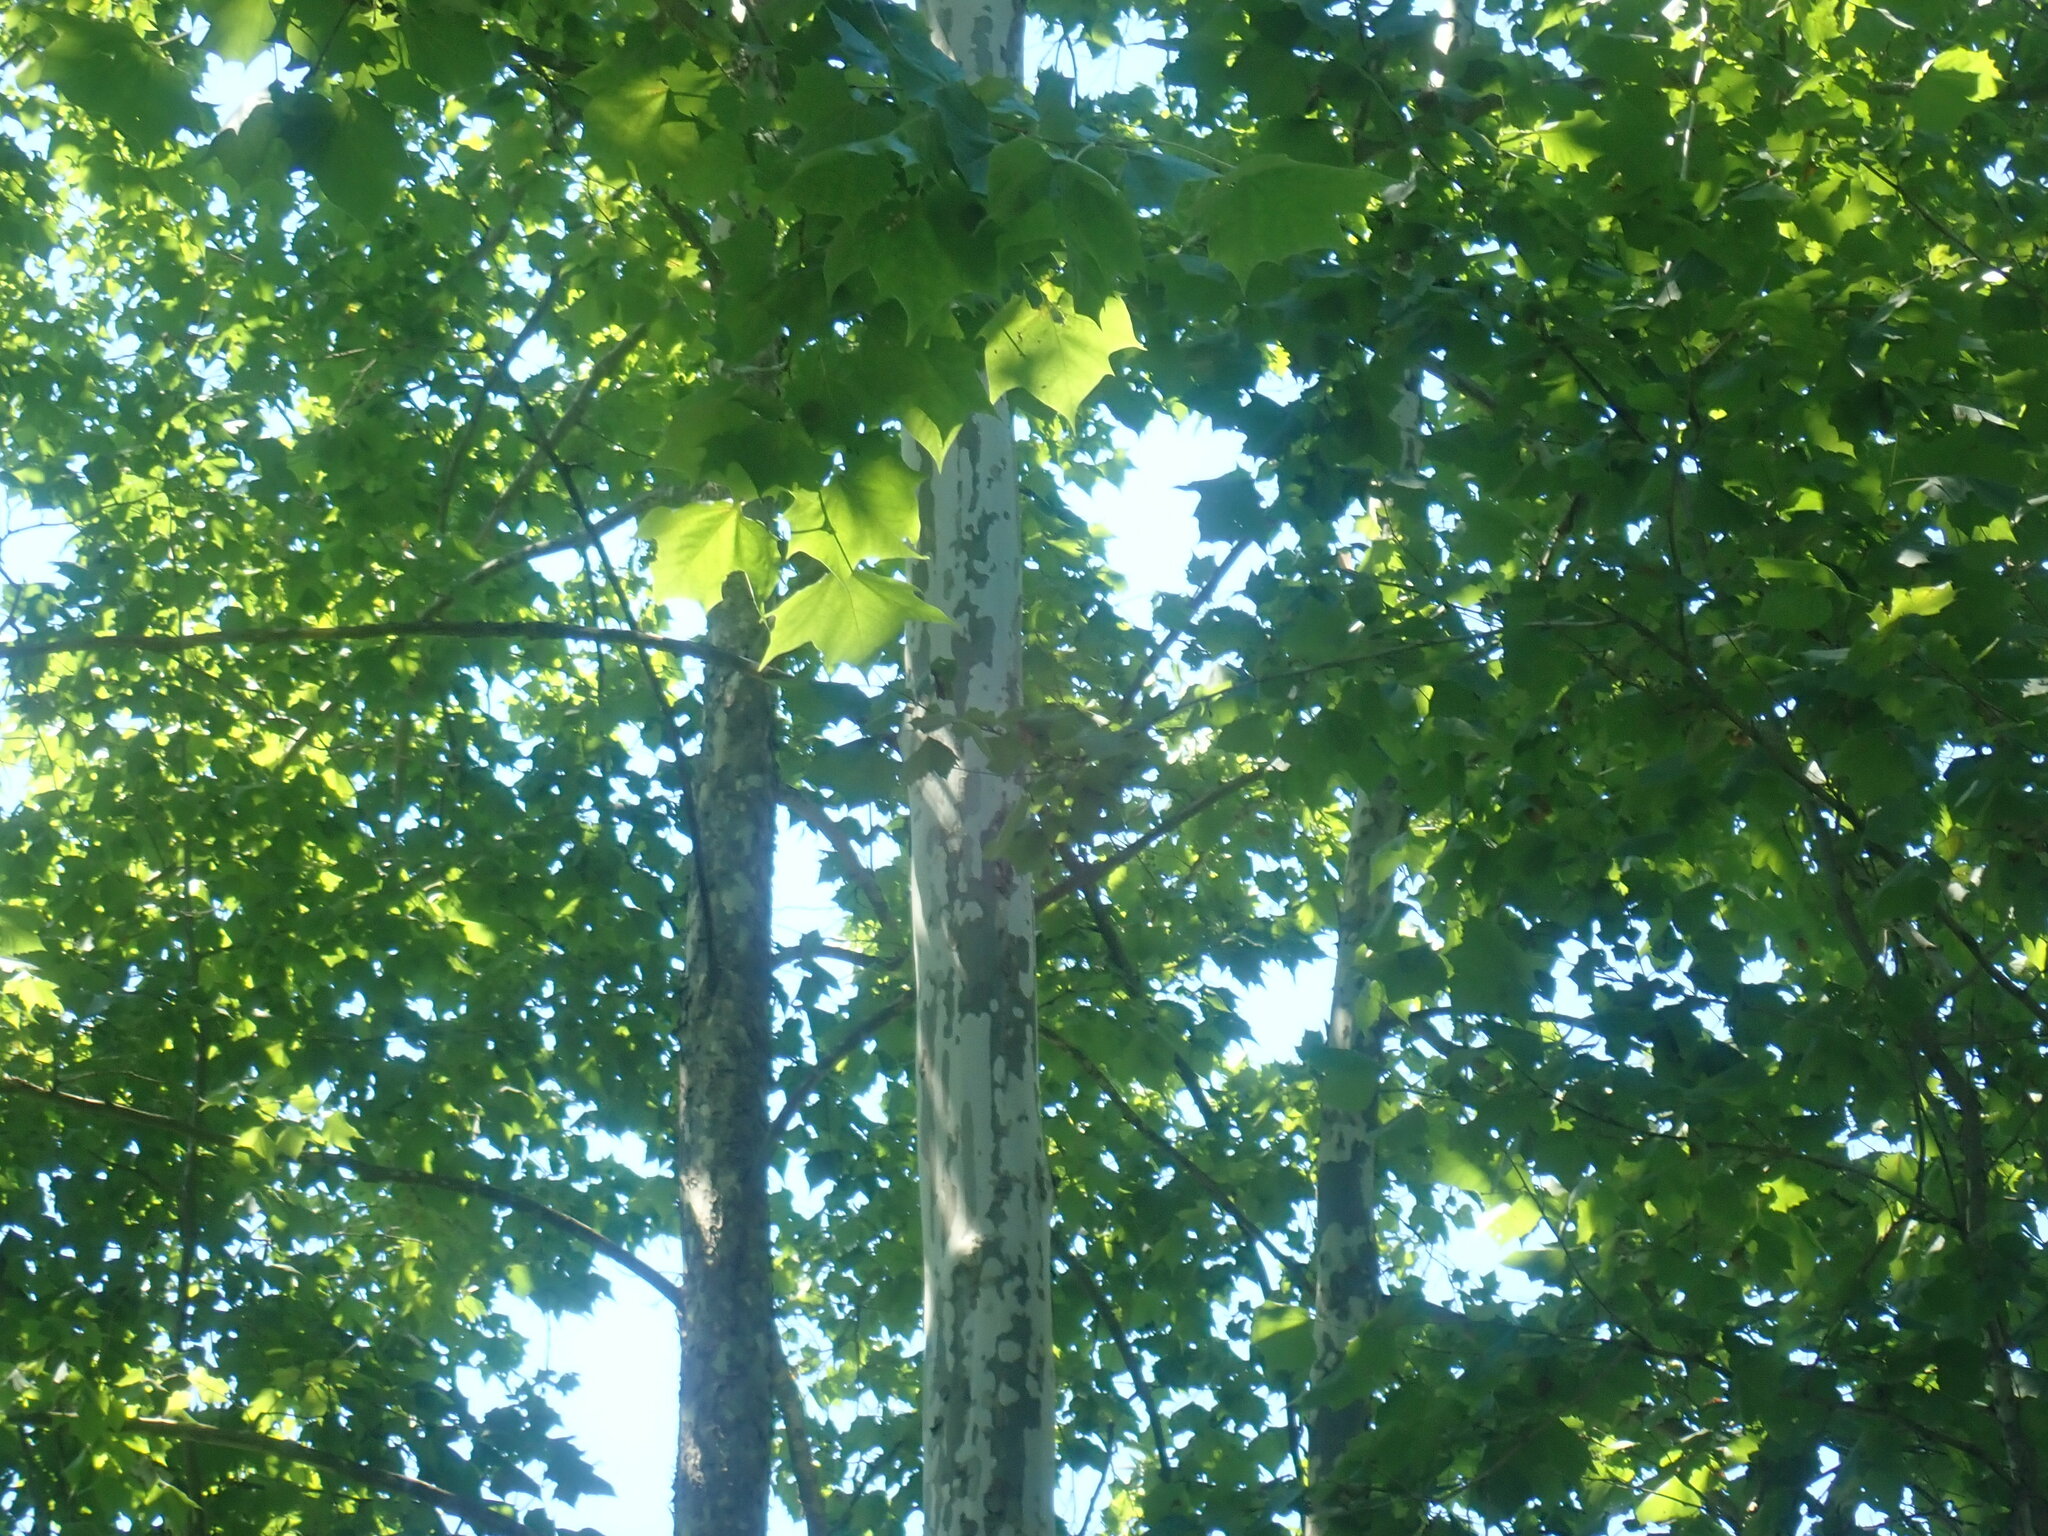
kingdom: Plantae
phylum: Tracheophyta
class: Magnoliopsida
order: Proteales
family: Platanaceae
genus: Platanus
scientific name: Platanus occidentalis
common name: American sycamore
